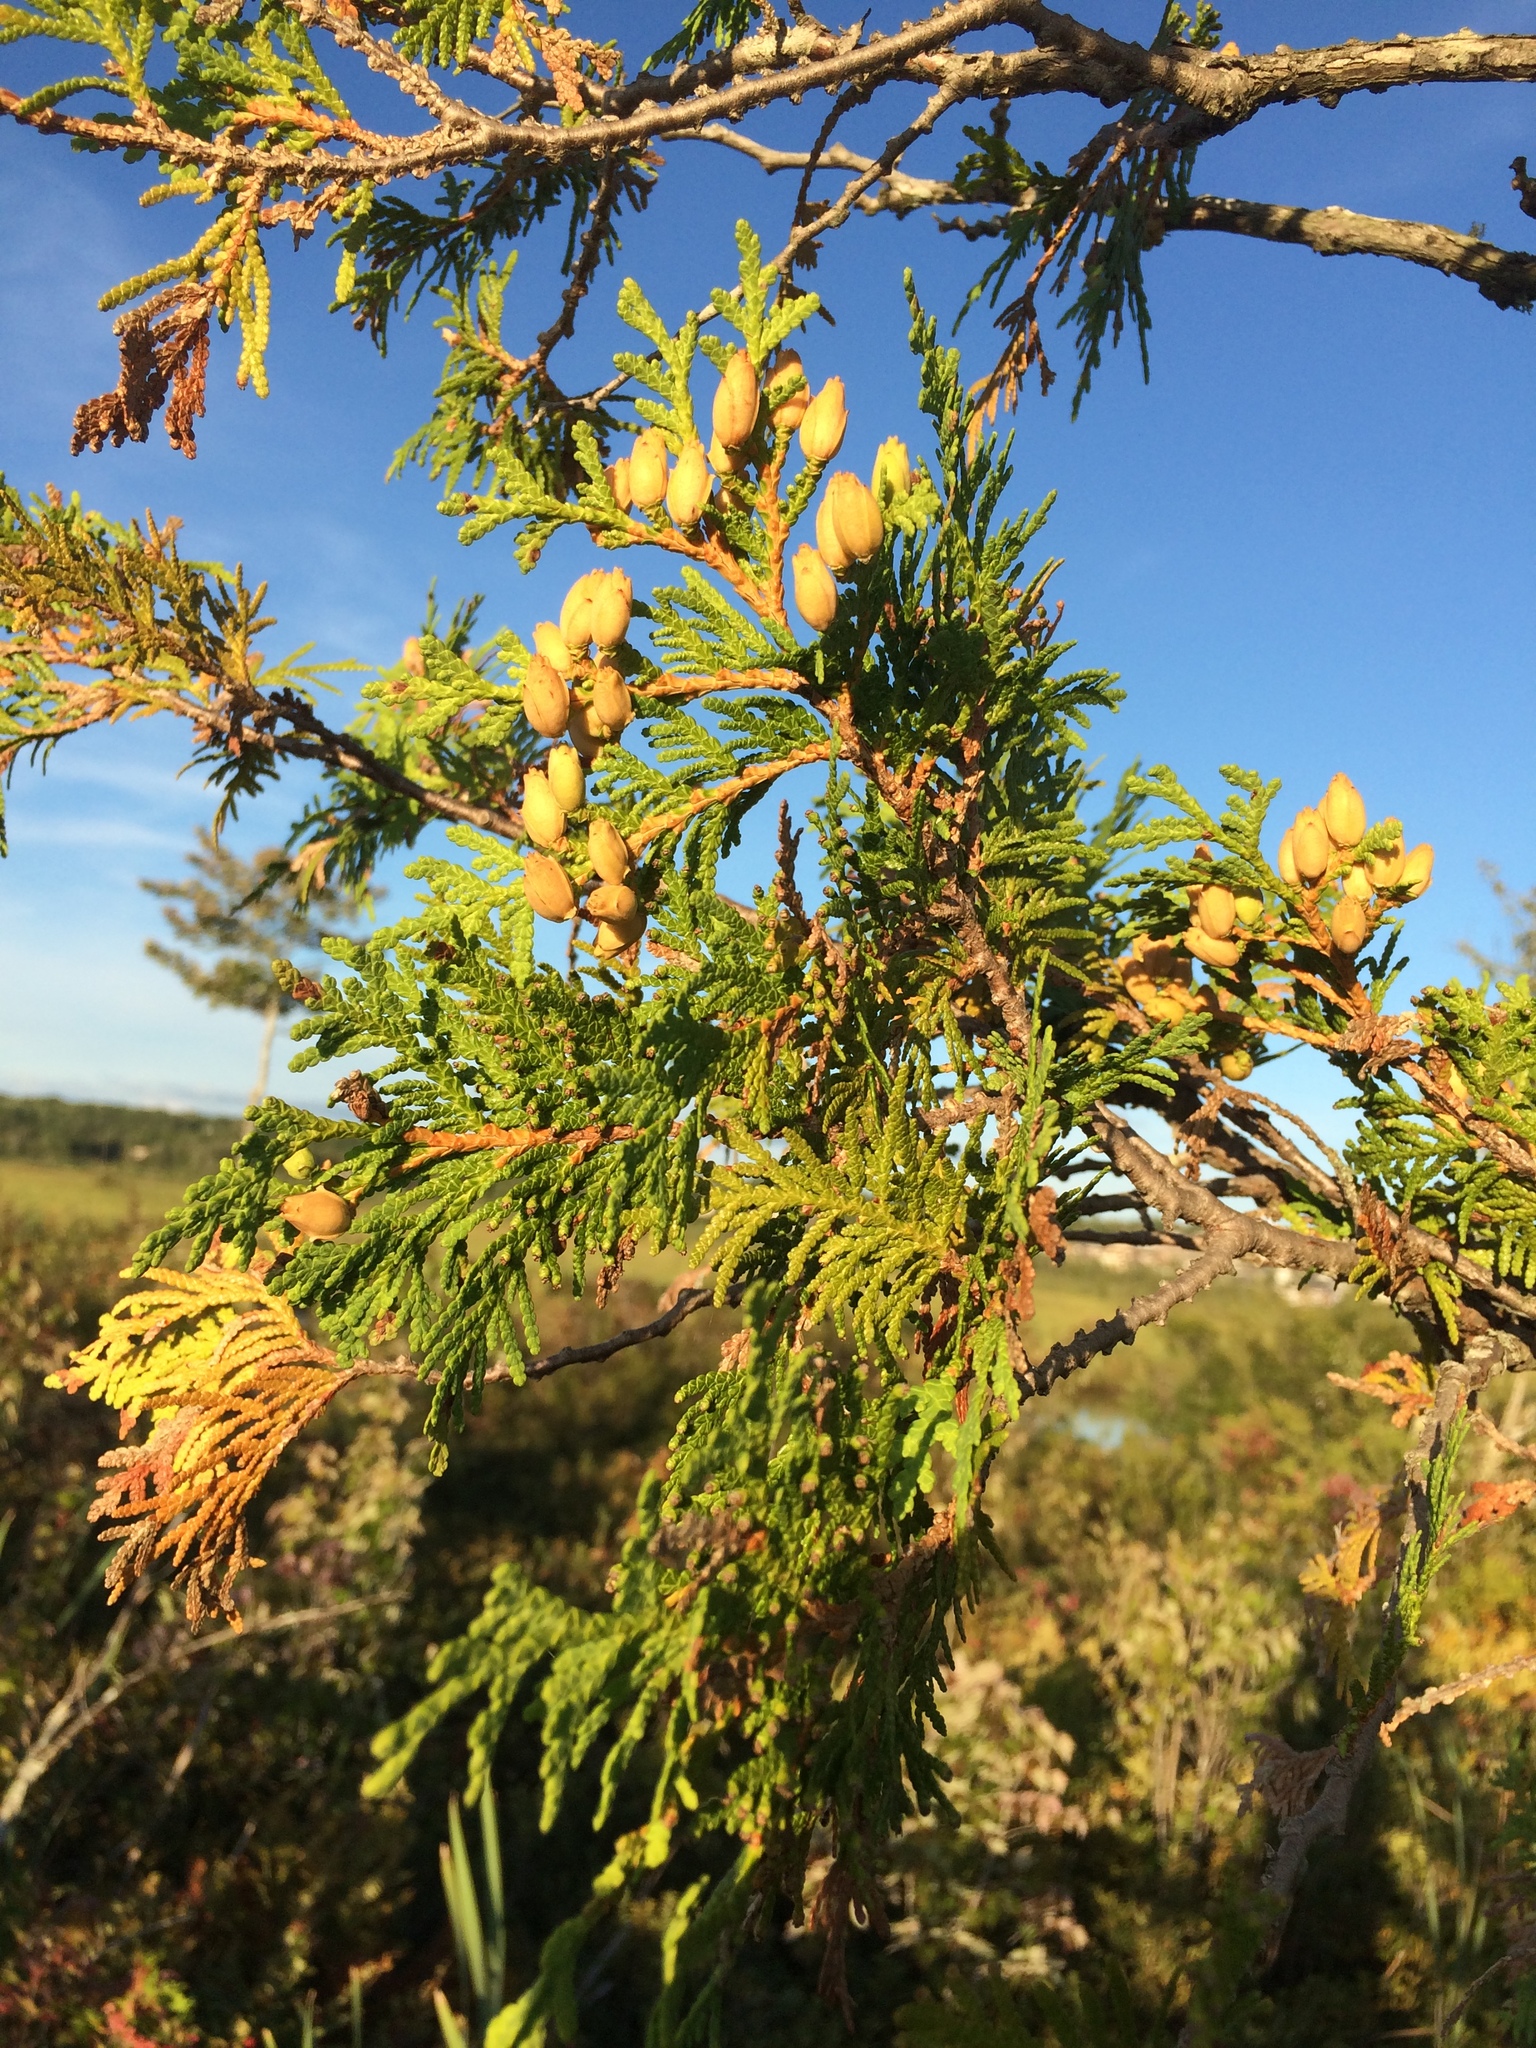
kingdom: Plantae
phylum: Tracheophyta
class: Pinopsida
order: Pinales
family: Cupressaceae
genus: Thuja
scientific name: Thuja occidentalis
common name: Northern white-cedar
